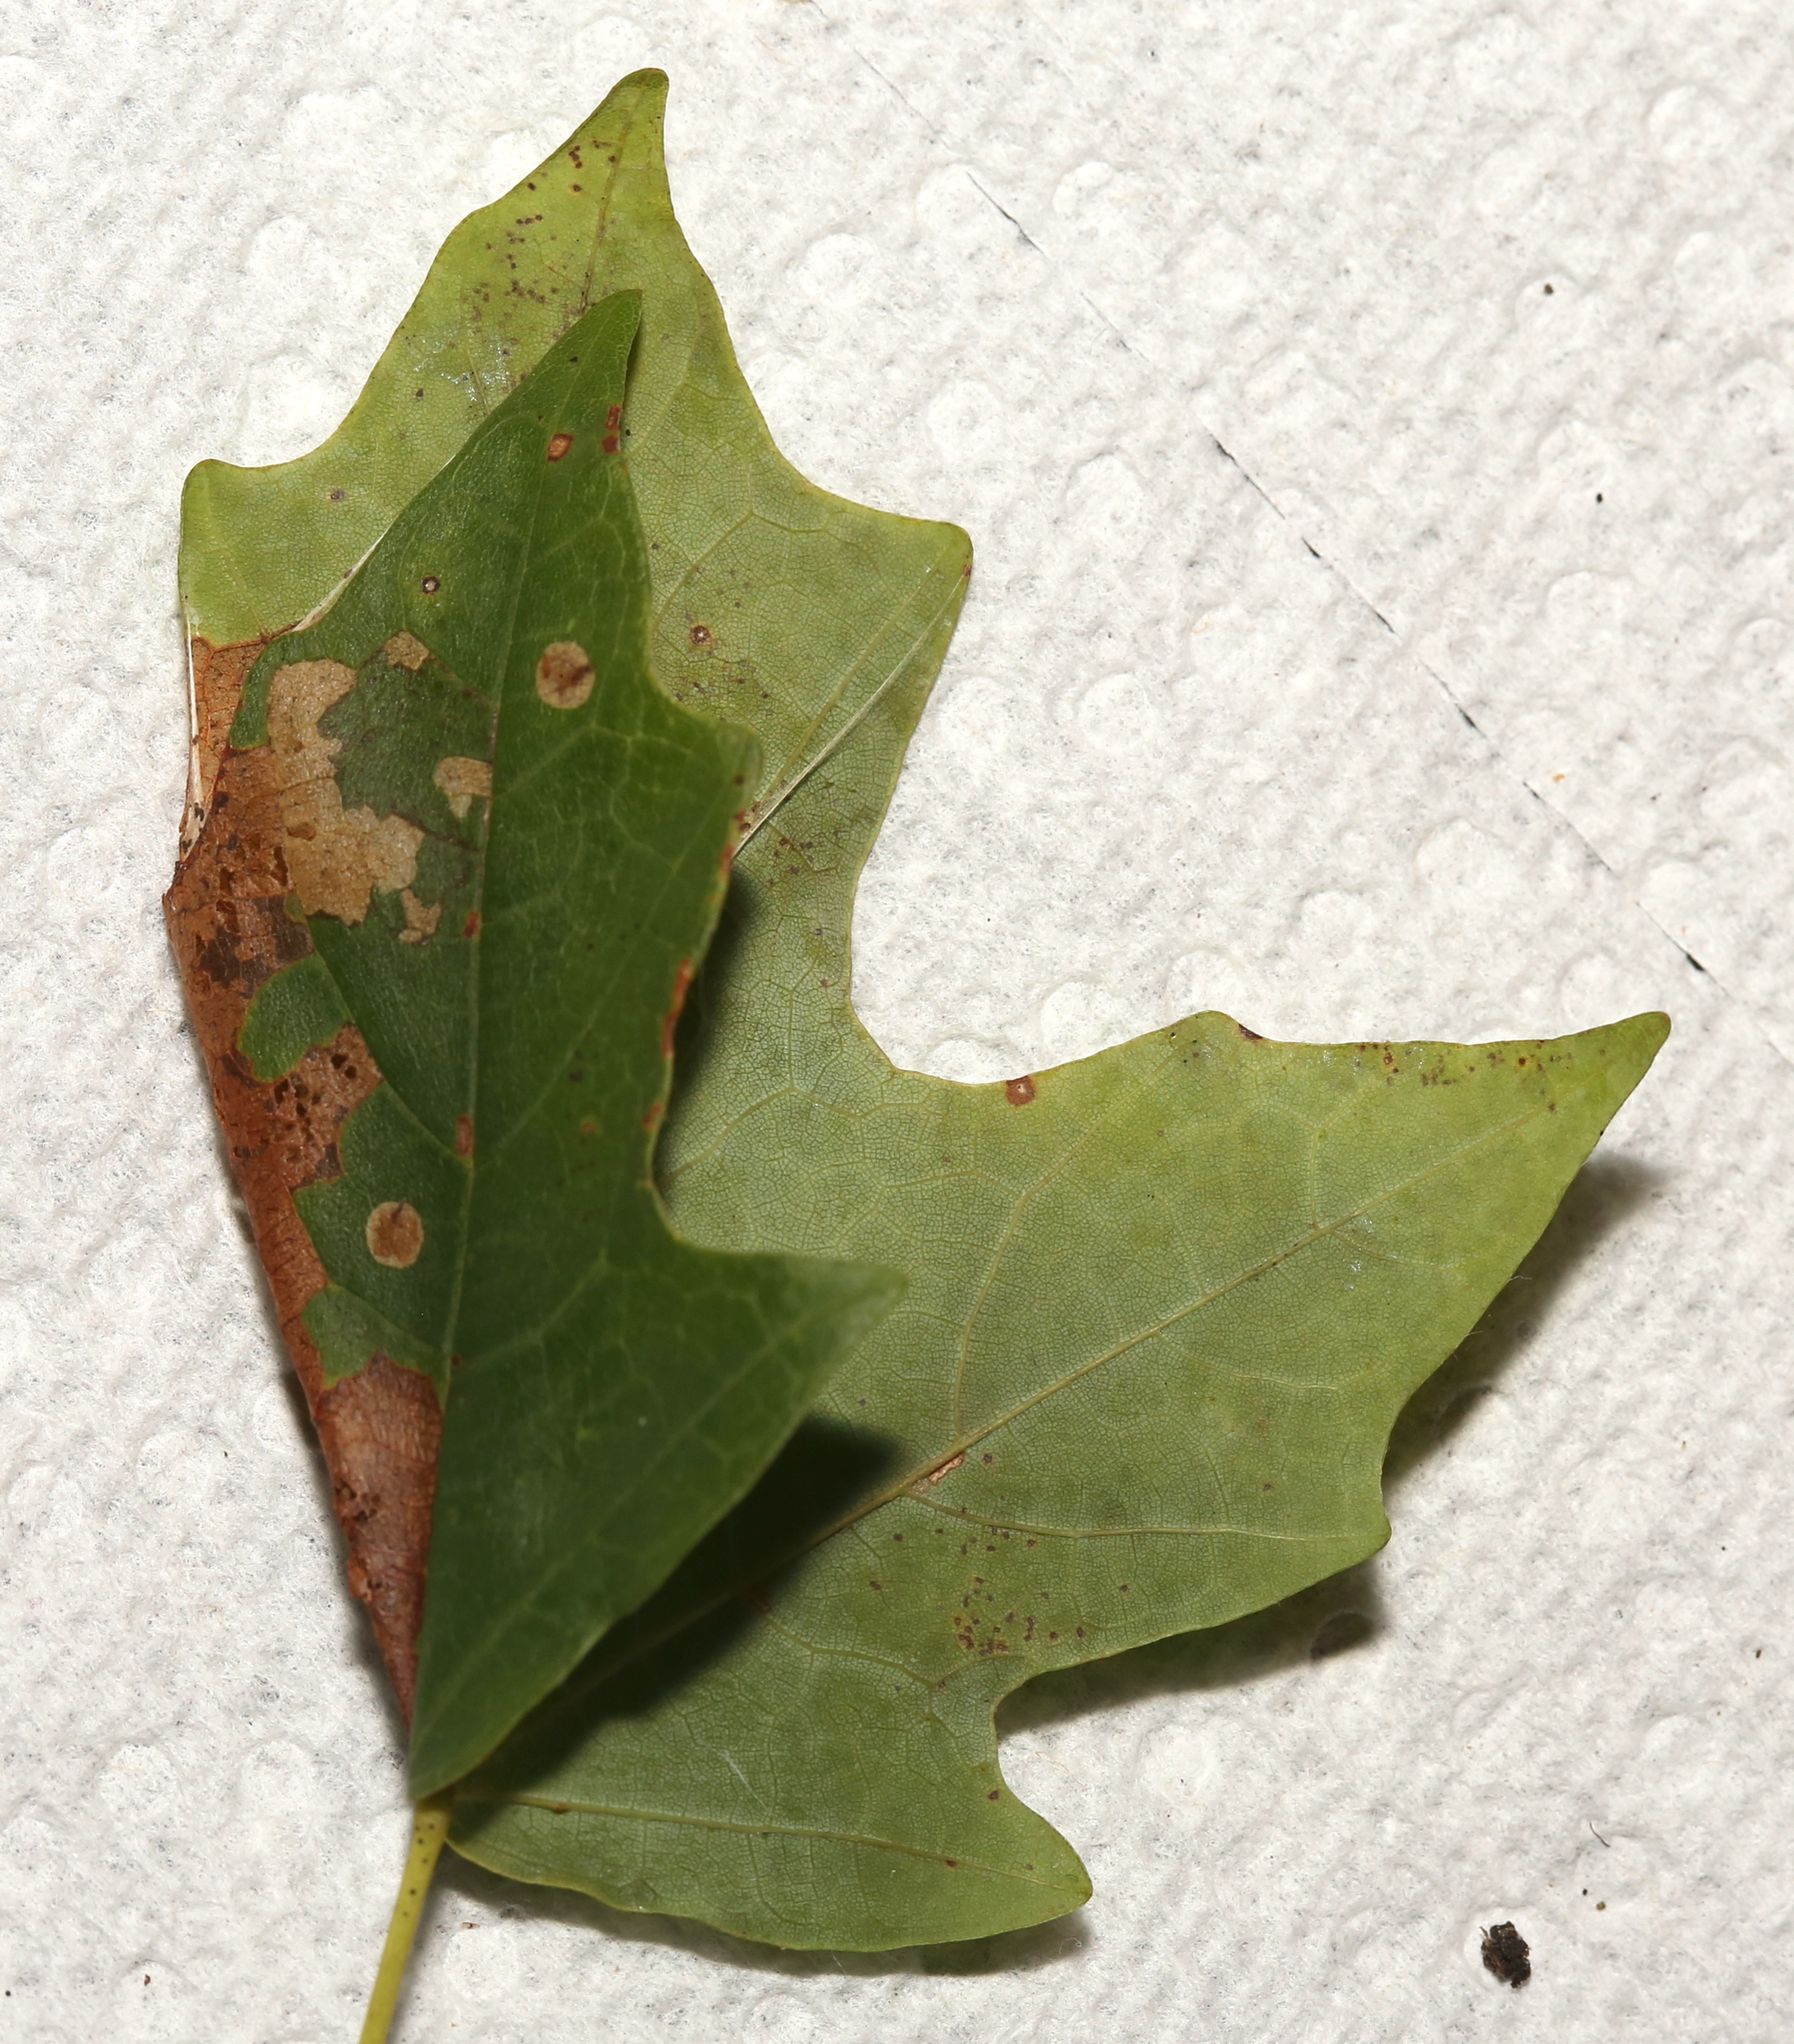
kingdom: Animalia
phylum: Arthropoda
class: Insecta
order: Lepidoptera
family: Tortricidae
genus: Catastega
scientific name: Catastega aceriella
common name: Maple trumpet skeletonizer moth
